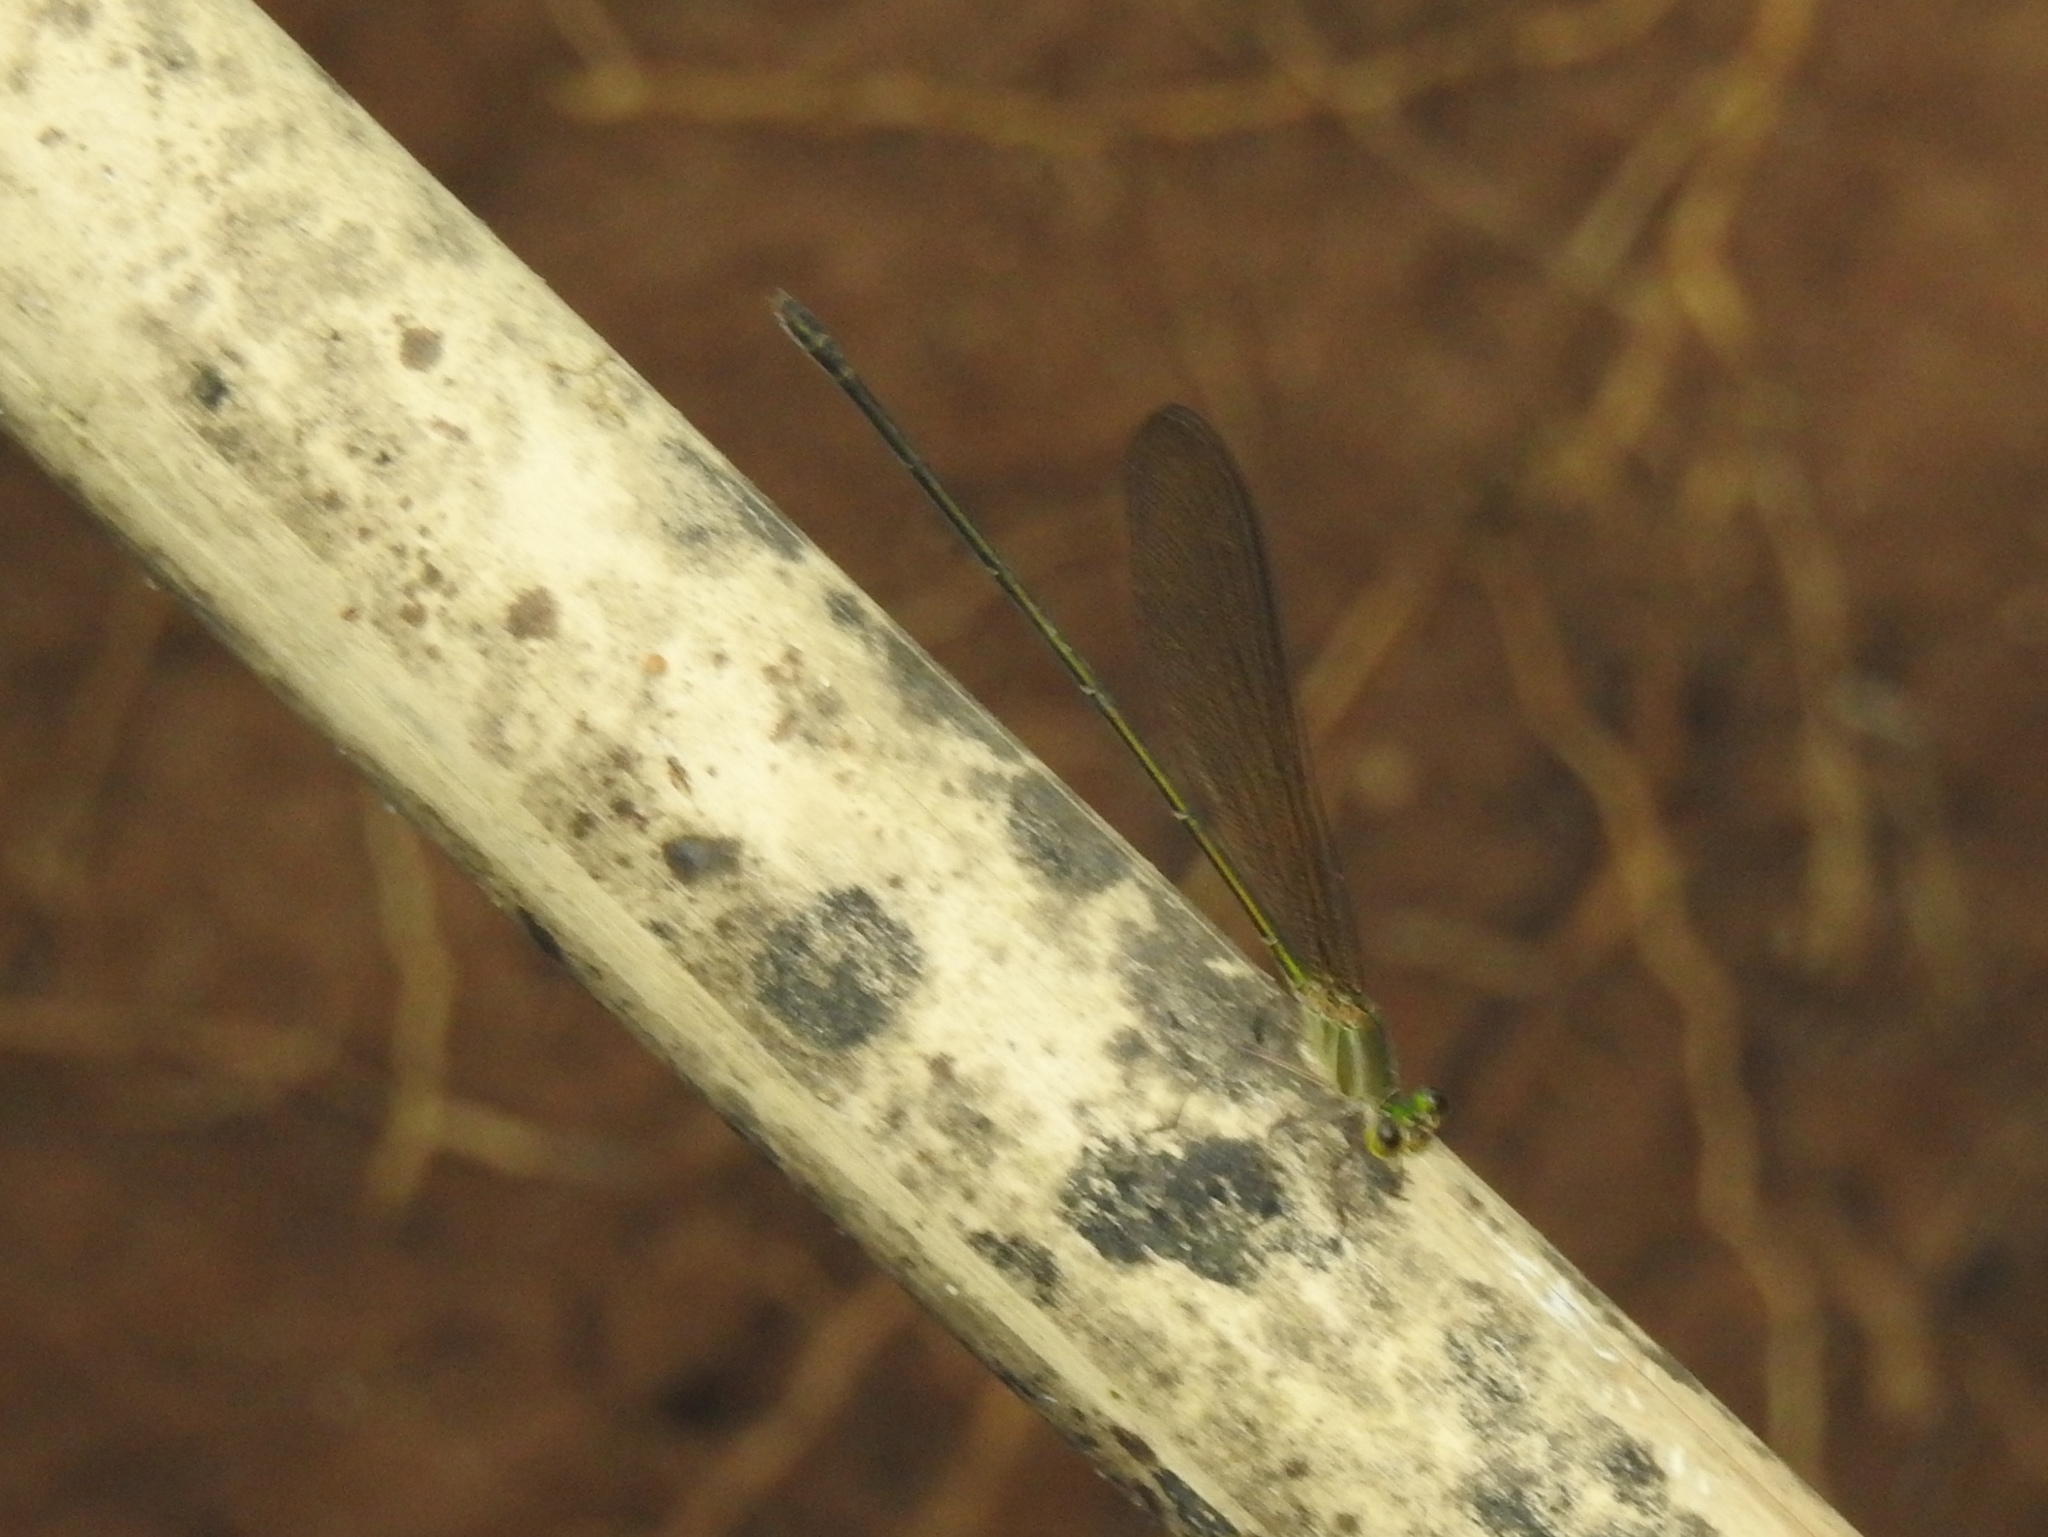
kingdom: Animalia
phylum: Arthropoda
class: Insecta
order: Odonata
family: Calopterygidae
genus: Vestalis
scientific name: Vestalis gracilis
